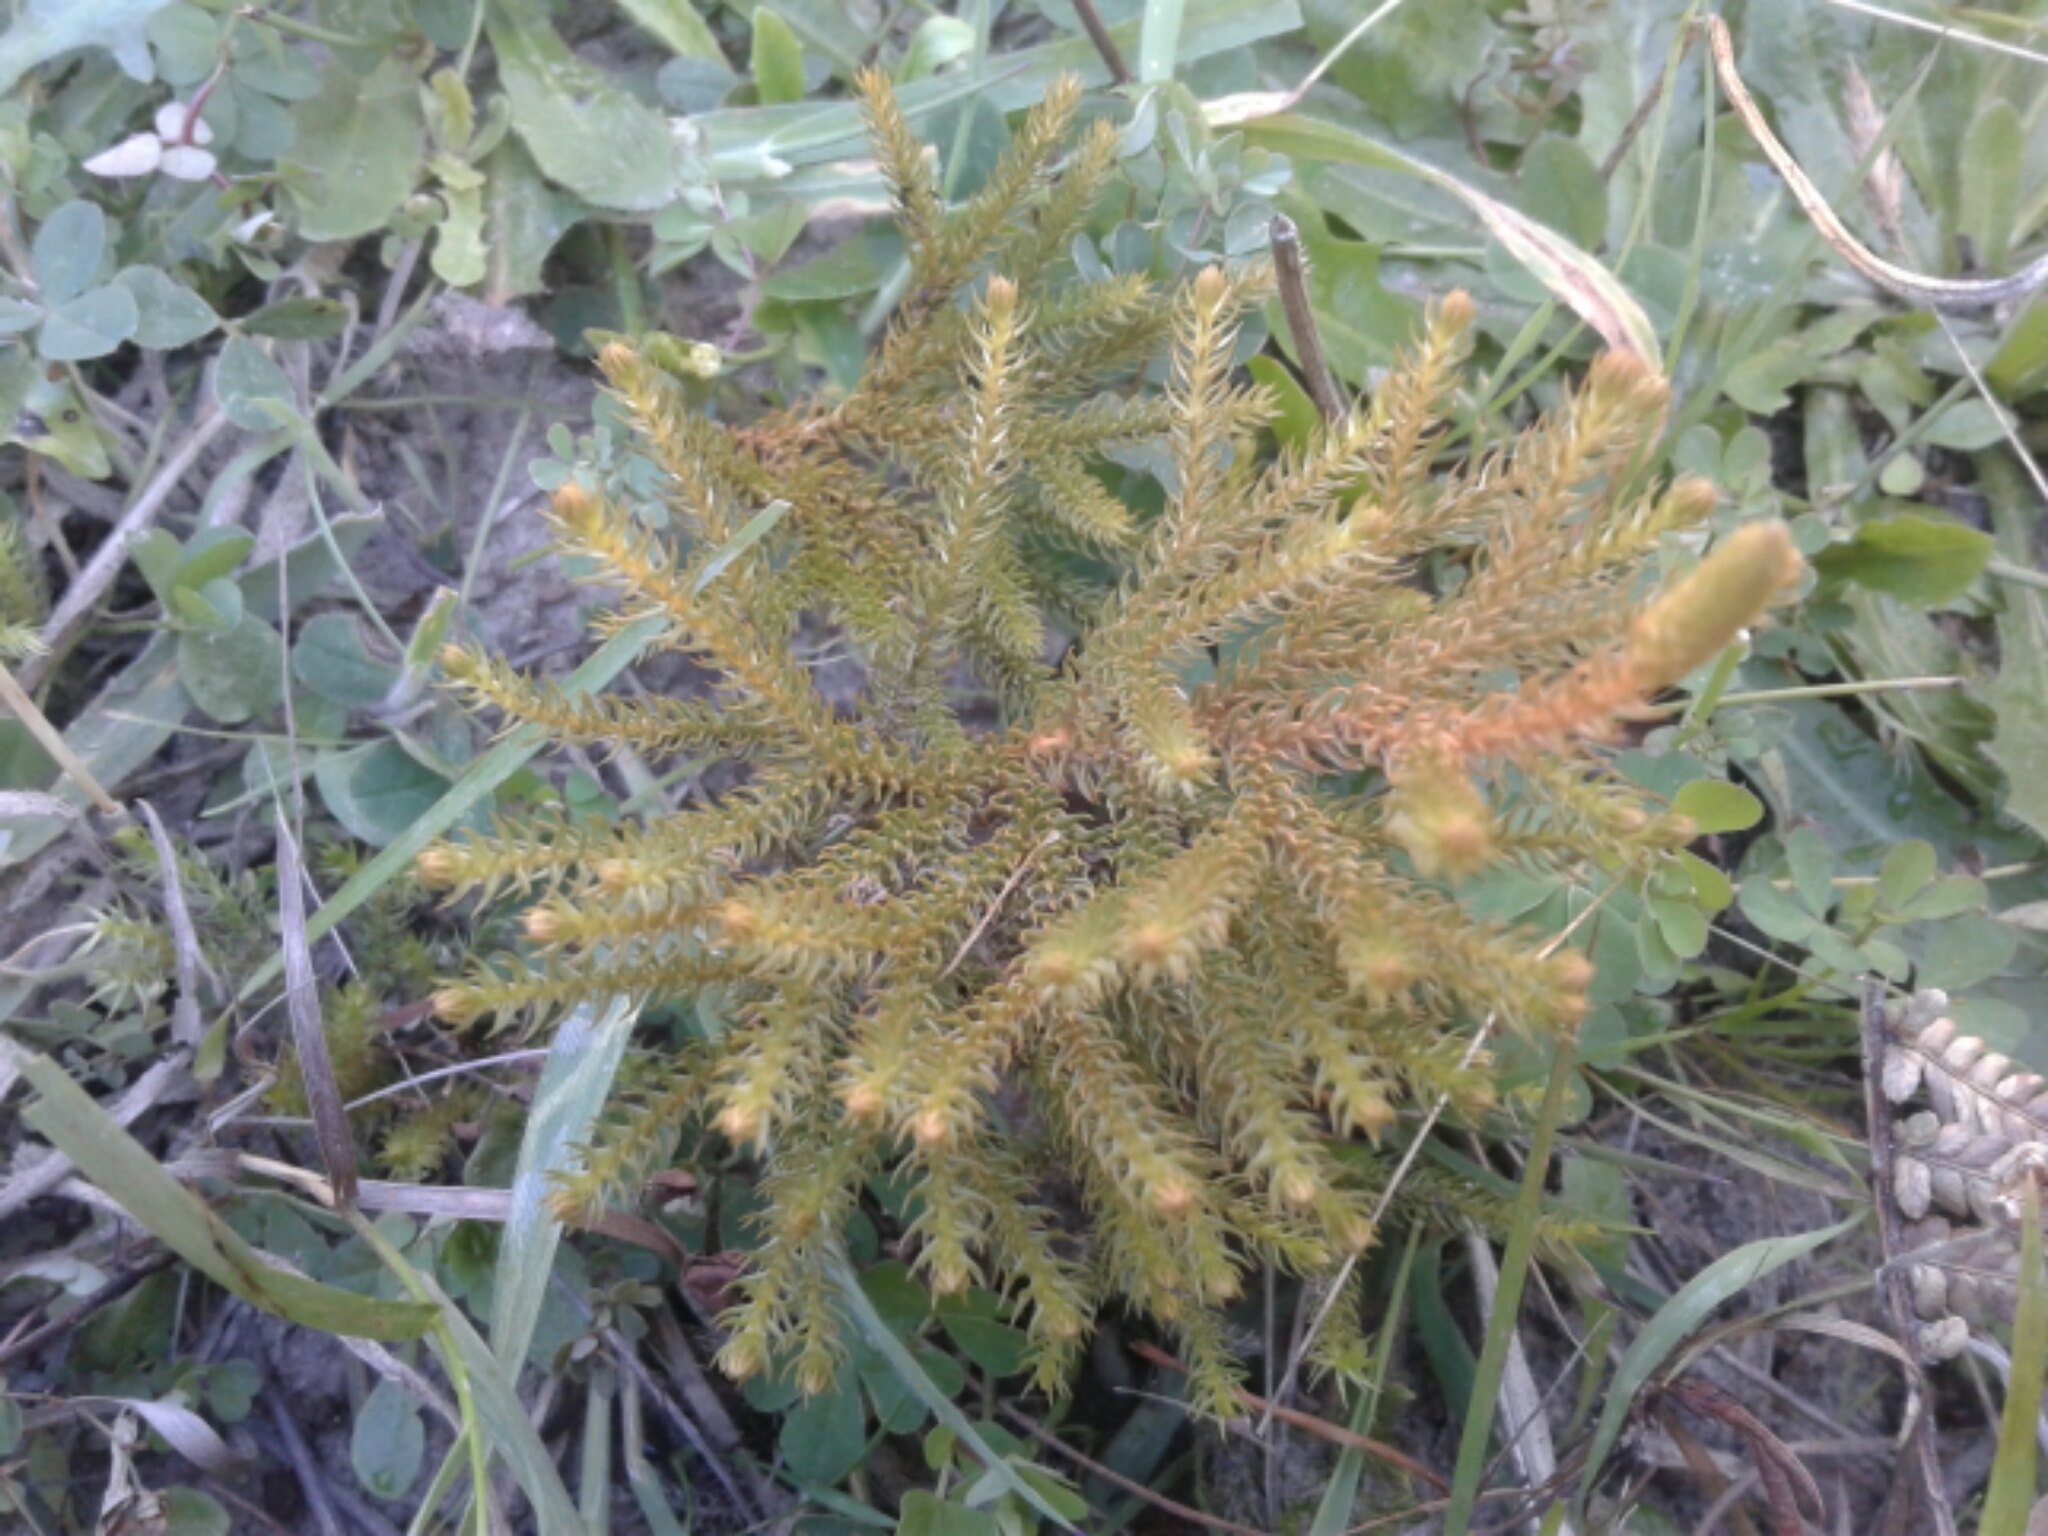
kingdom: Plantae
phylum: Tracheophyta
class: Lycopodiopsida
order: Lycopodiales
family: Lycopodiaceae
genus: Austrolycopodium
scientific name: Austrolycopodium fastigiatum
